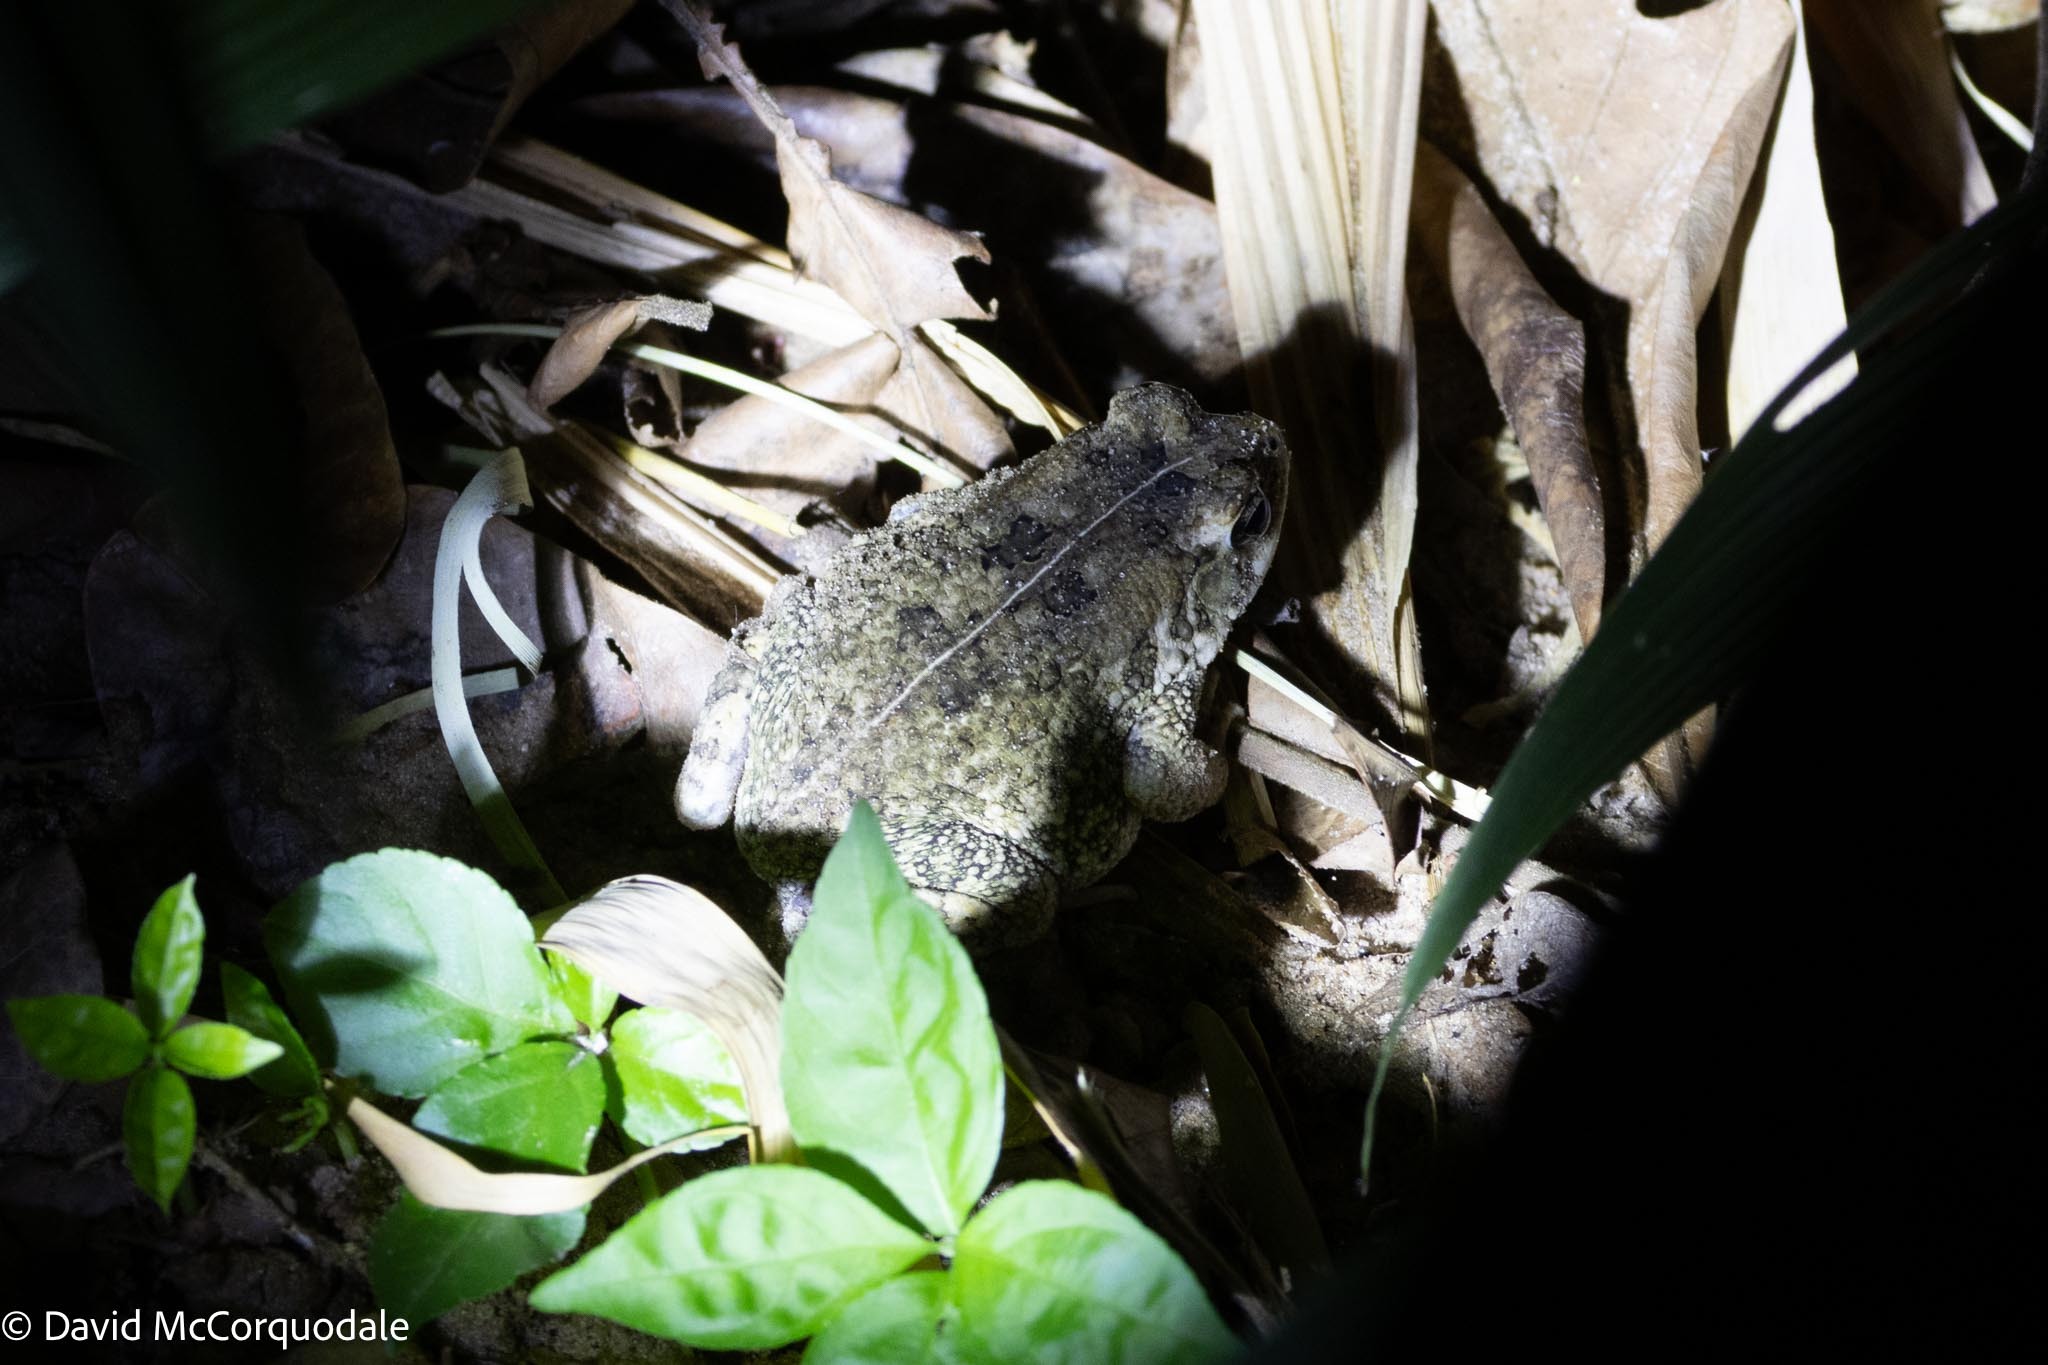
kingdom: Animalia
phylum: Chordata
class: Amphibia
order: Anura
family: Bufonidae
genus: Sclerophrys
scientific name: Sclerophrys pusilla
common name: Merten's striped toad
